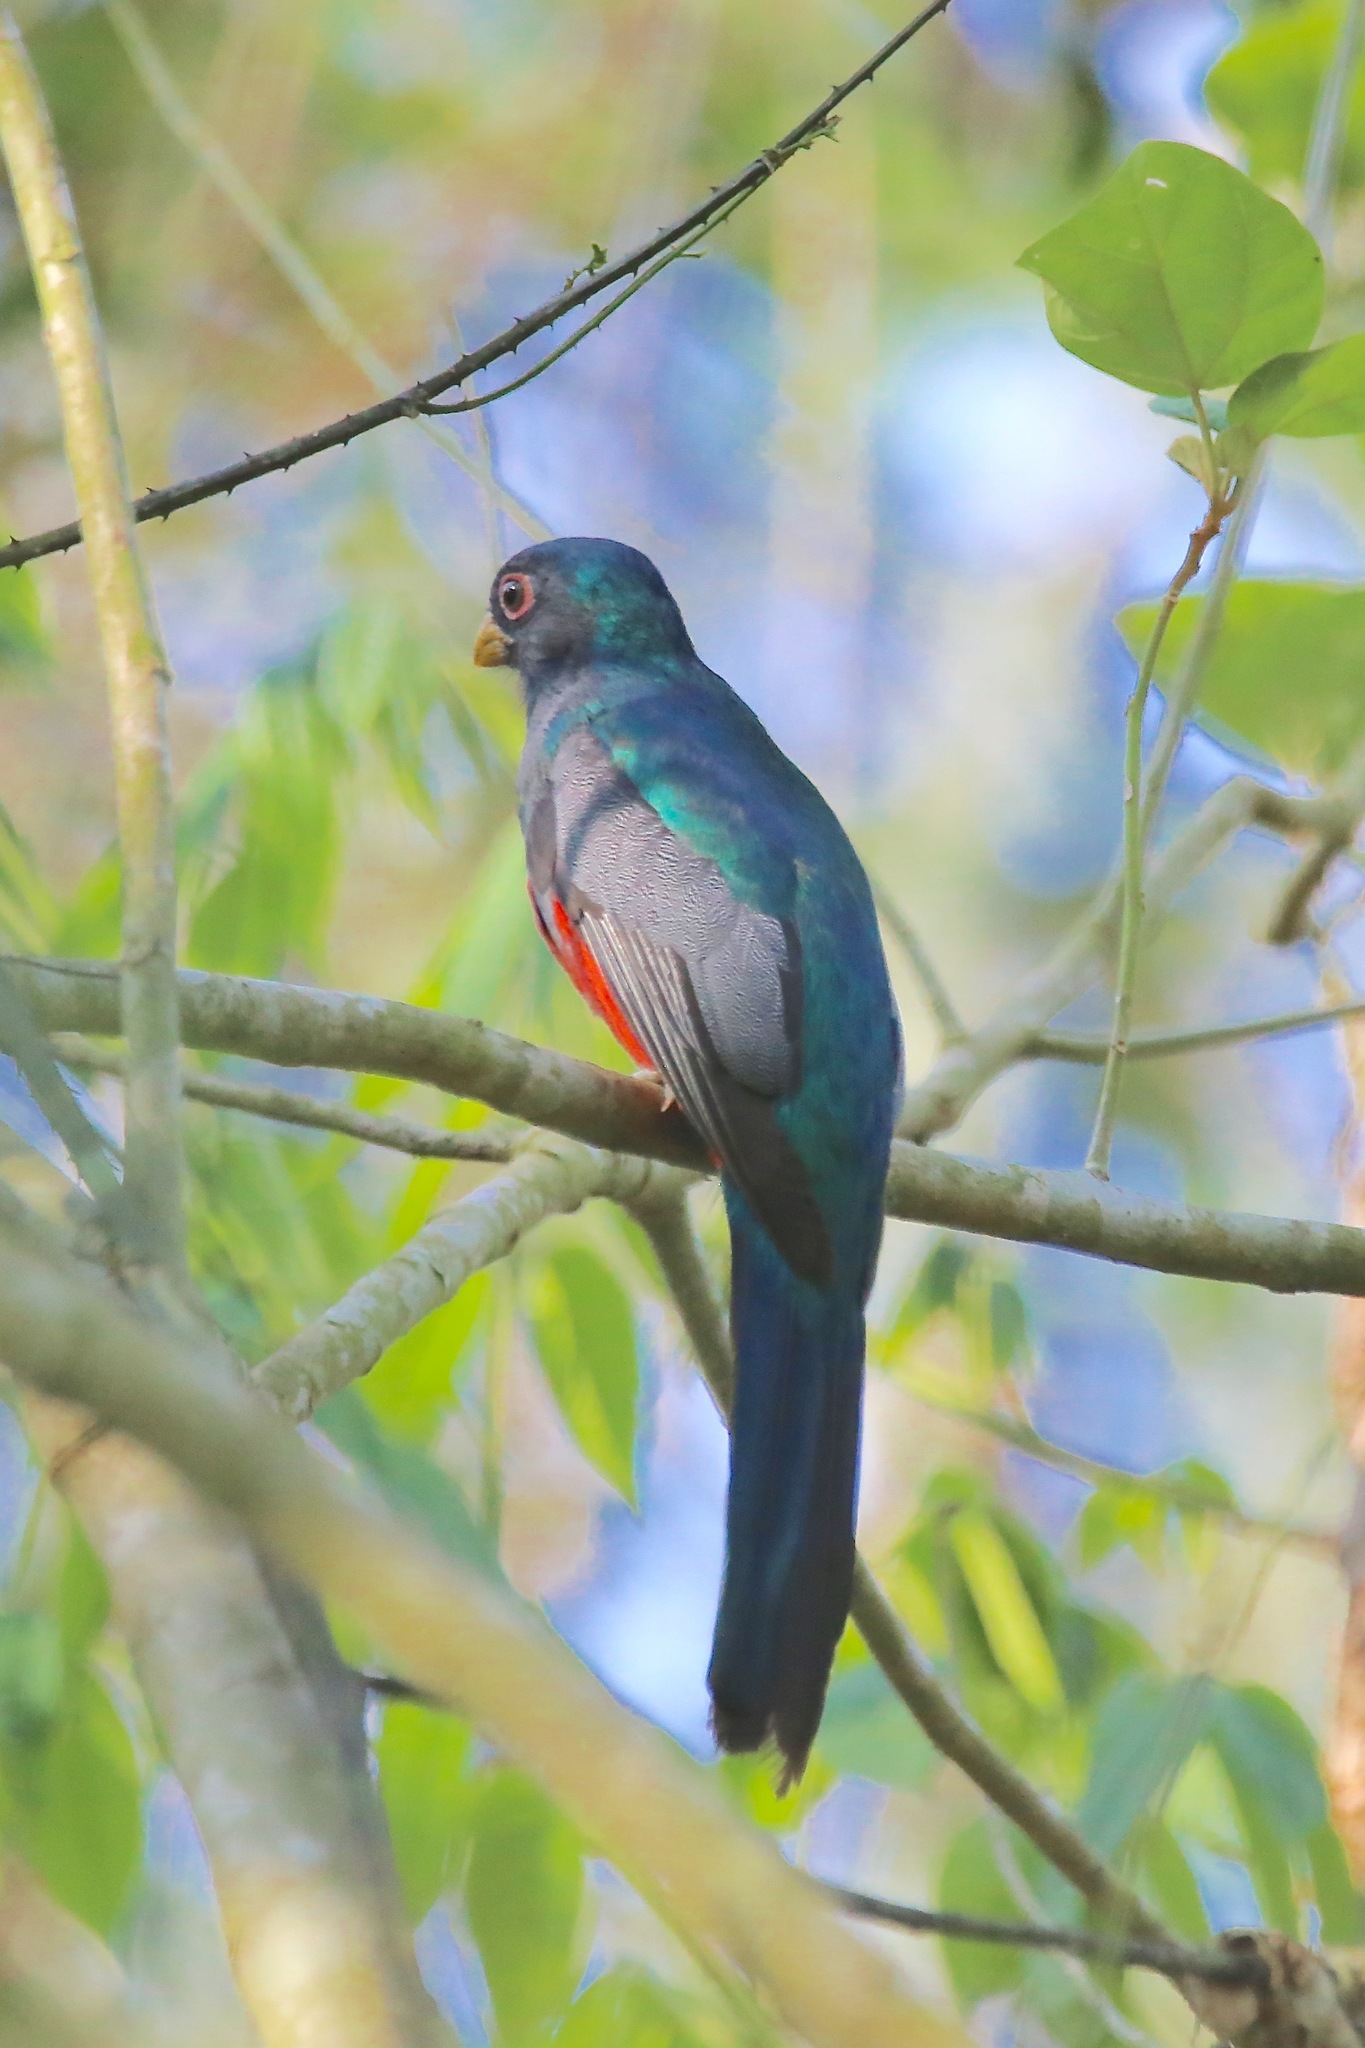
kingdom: Animalia
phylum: Chordata
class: Aves
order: Trogoniformes
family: Trogonidae
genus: Trogon
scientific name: Trogon melanurus
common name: Black-tailed trogon
